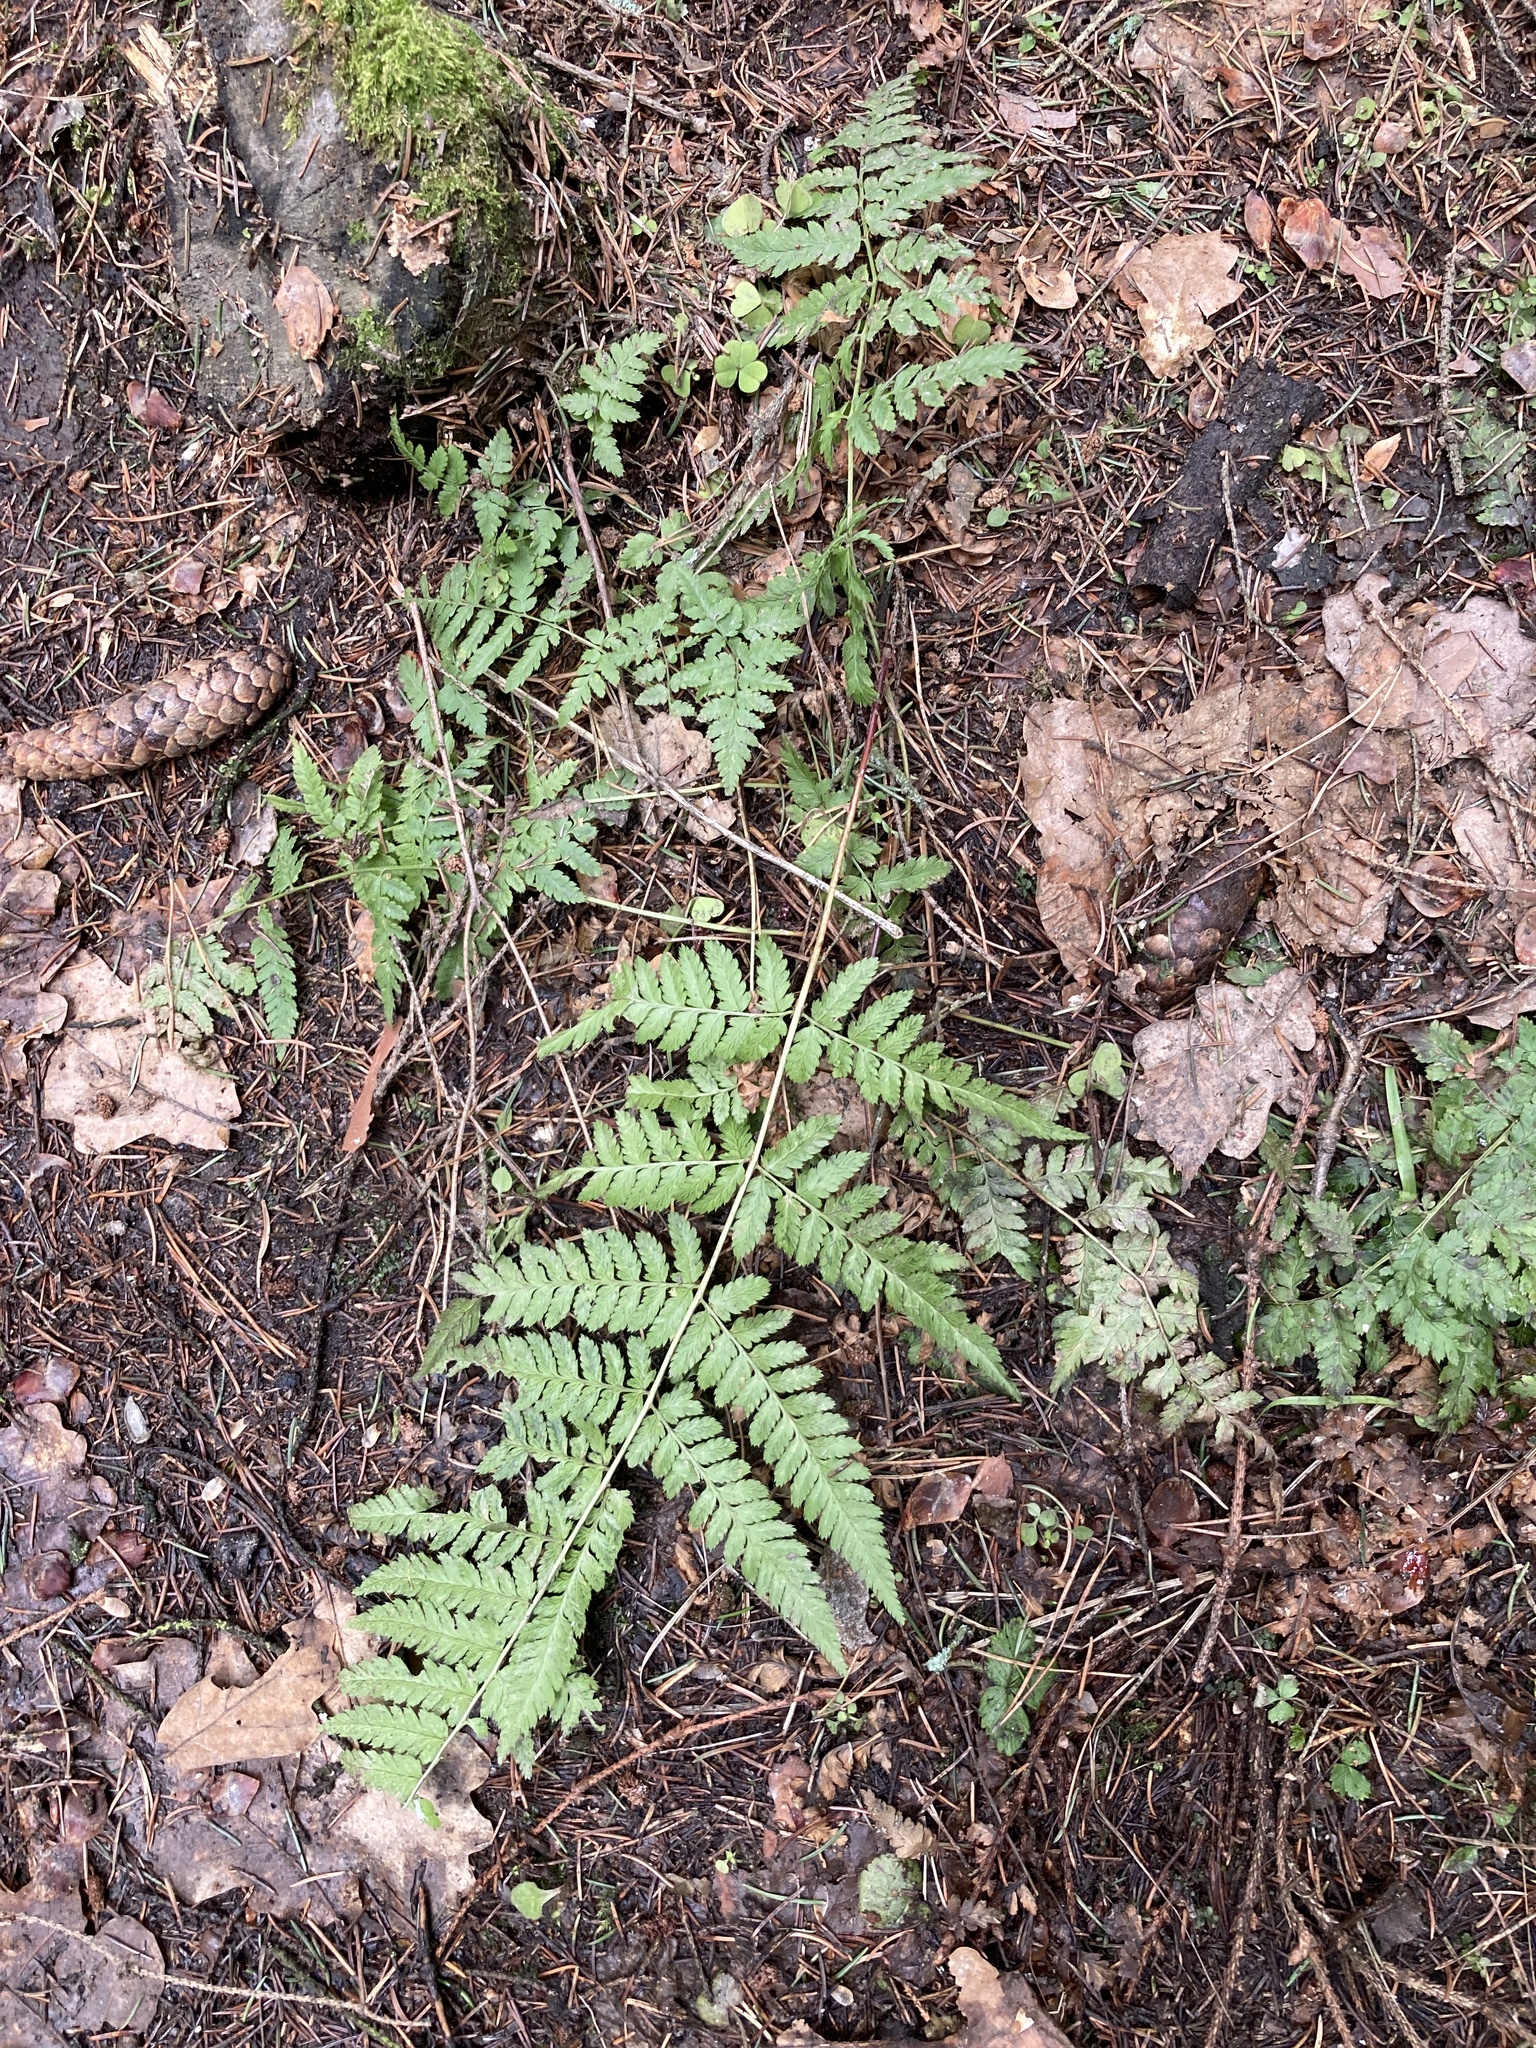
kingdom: Plantae
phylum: Tracheophyta
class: Polypodiopsida
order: Polypodiales
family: Dryopteridaceae
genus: Dryopteris
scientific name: Dryopteris carthusiana
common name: Narrow buckler-fern
